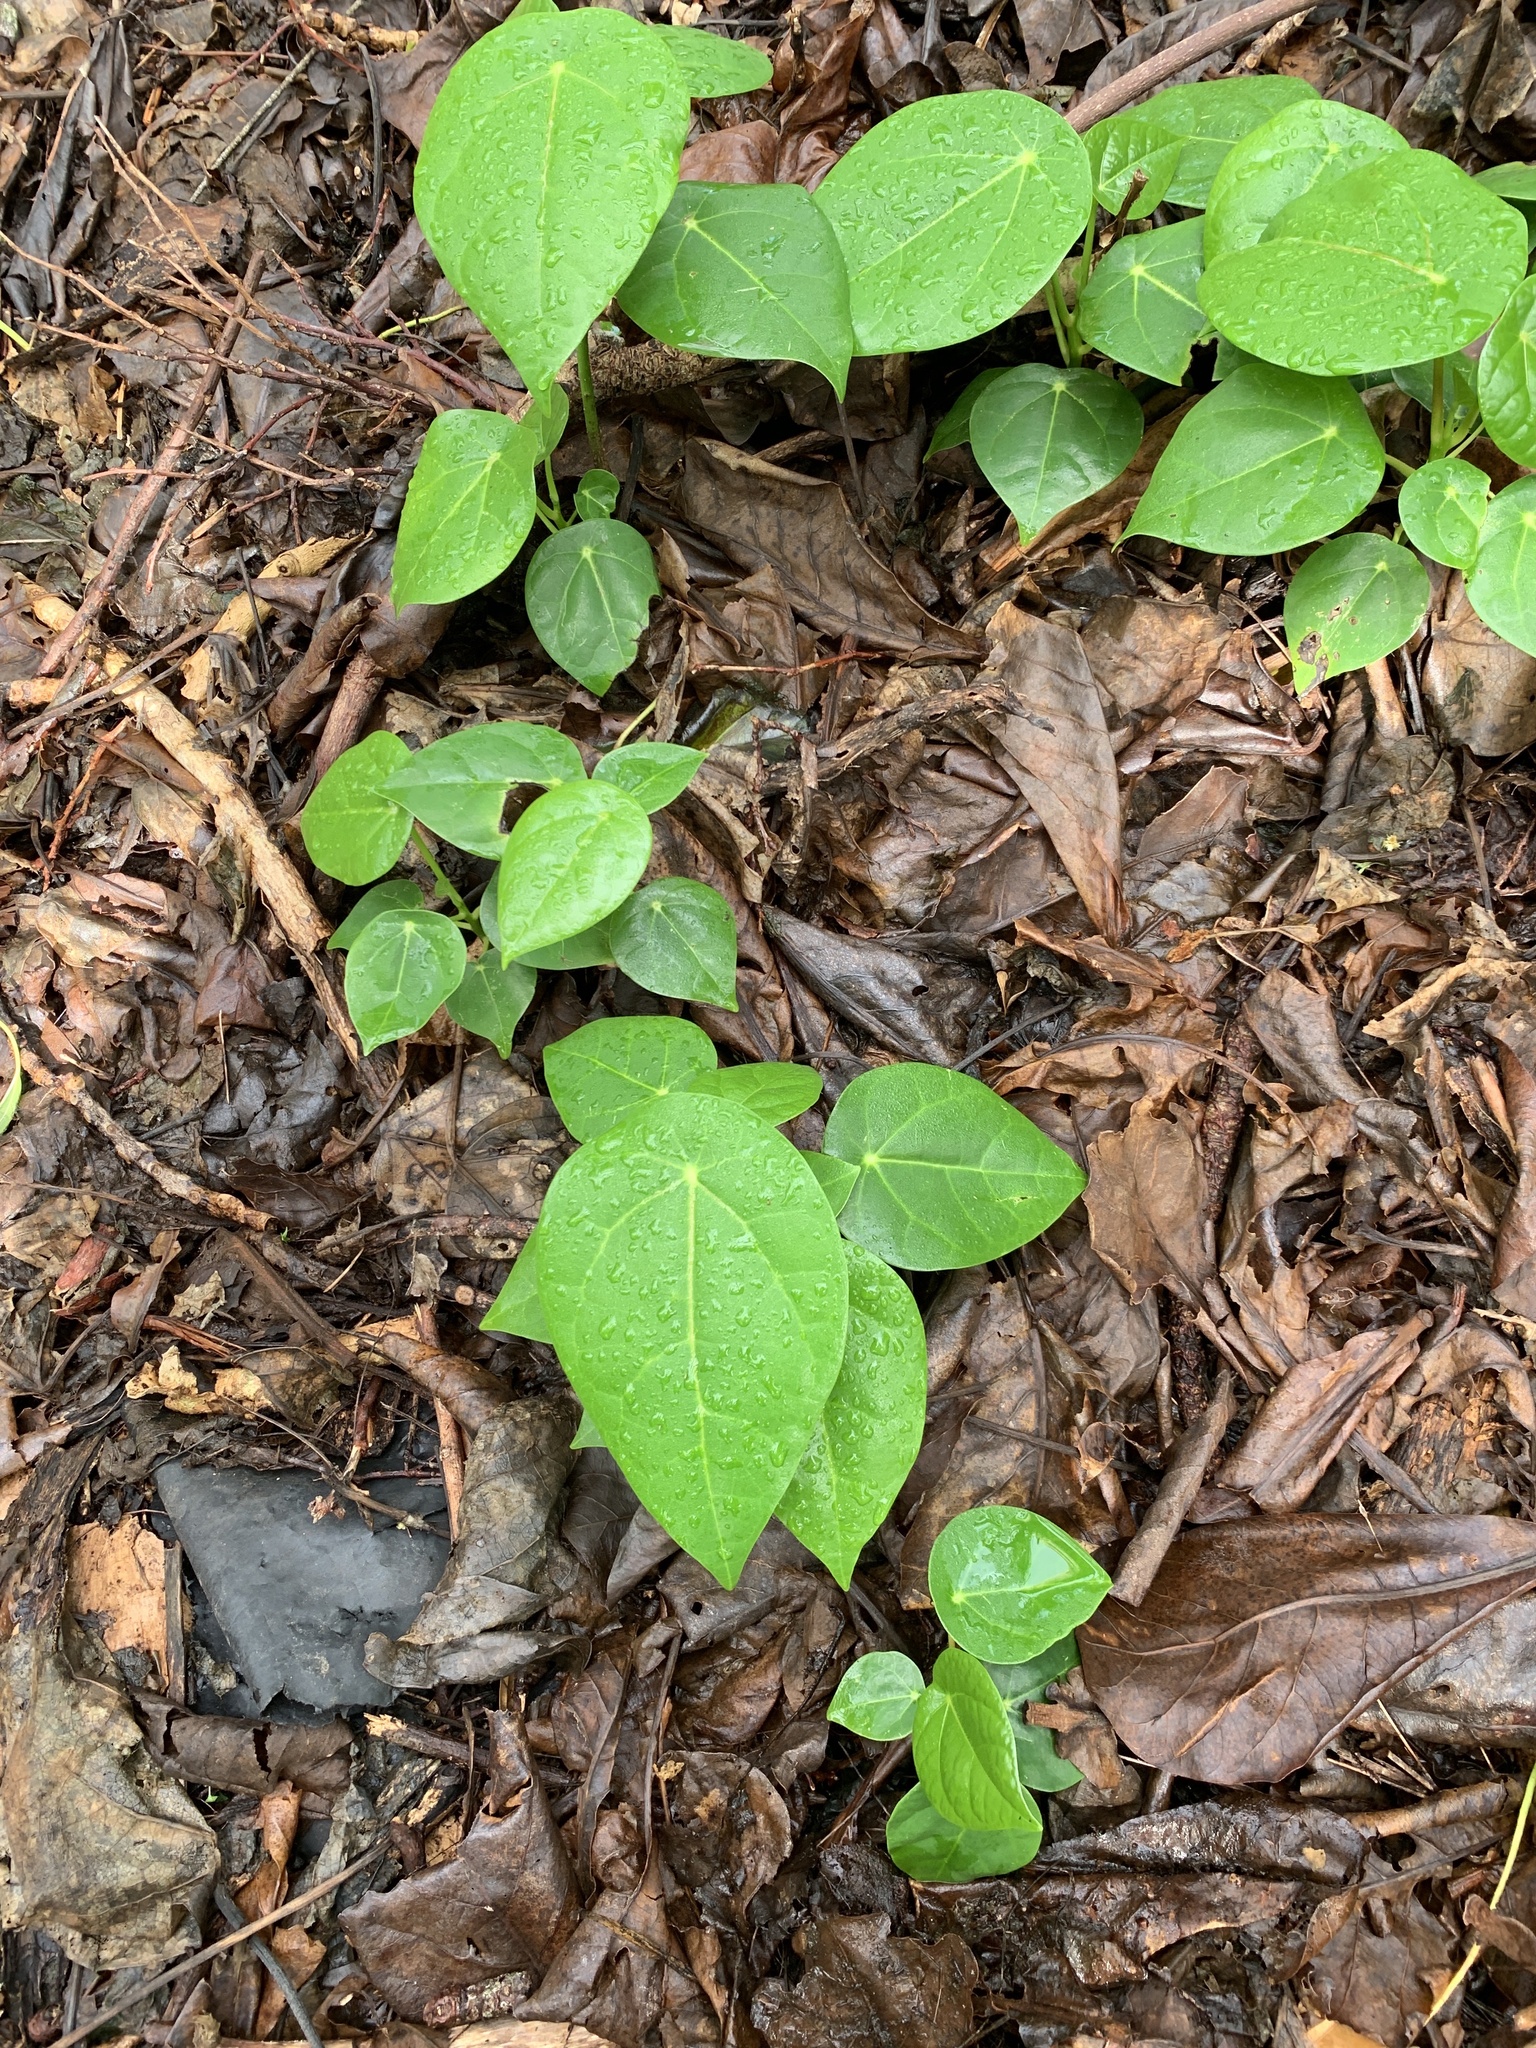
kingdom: Plantae
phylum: Tracheophyta
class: Magnoliopsida
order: Laurales
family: Hernandiaceae
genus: Hernandia
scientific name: Hernandia nymphaeifolia
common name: Sea hearse
